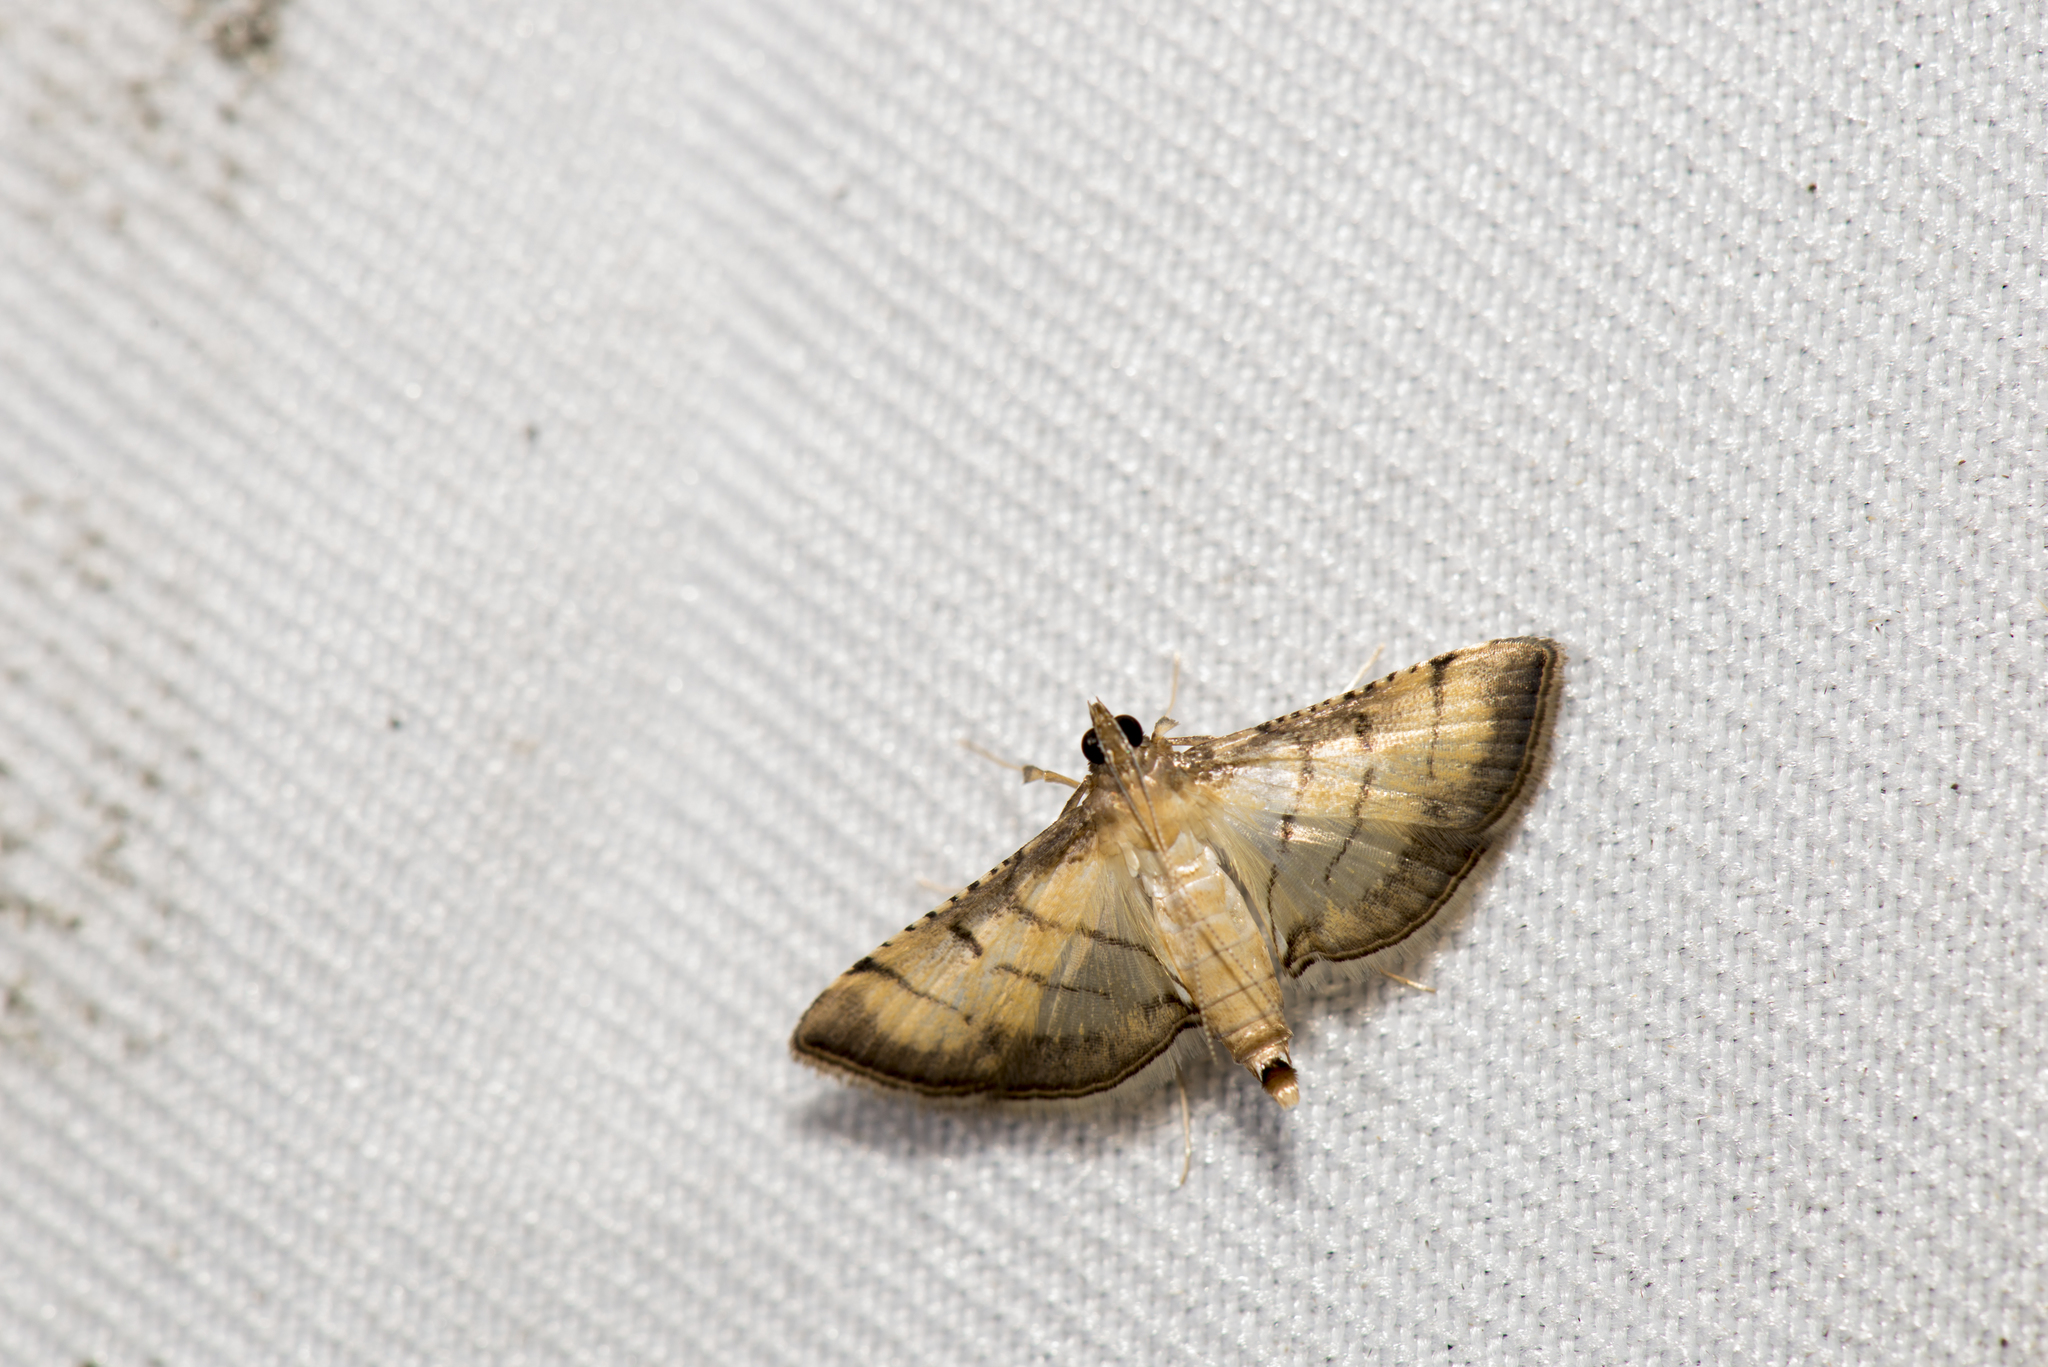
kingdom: Animalia
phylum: Arthropoda
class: Insecta
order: Lepidoptera
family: Crambidae
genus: Cnaphalocrocis
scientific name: Cnaphalocrocis poeyalis
